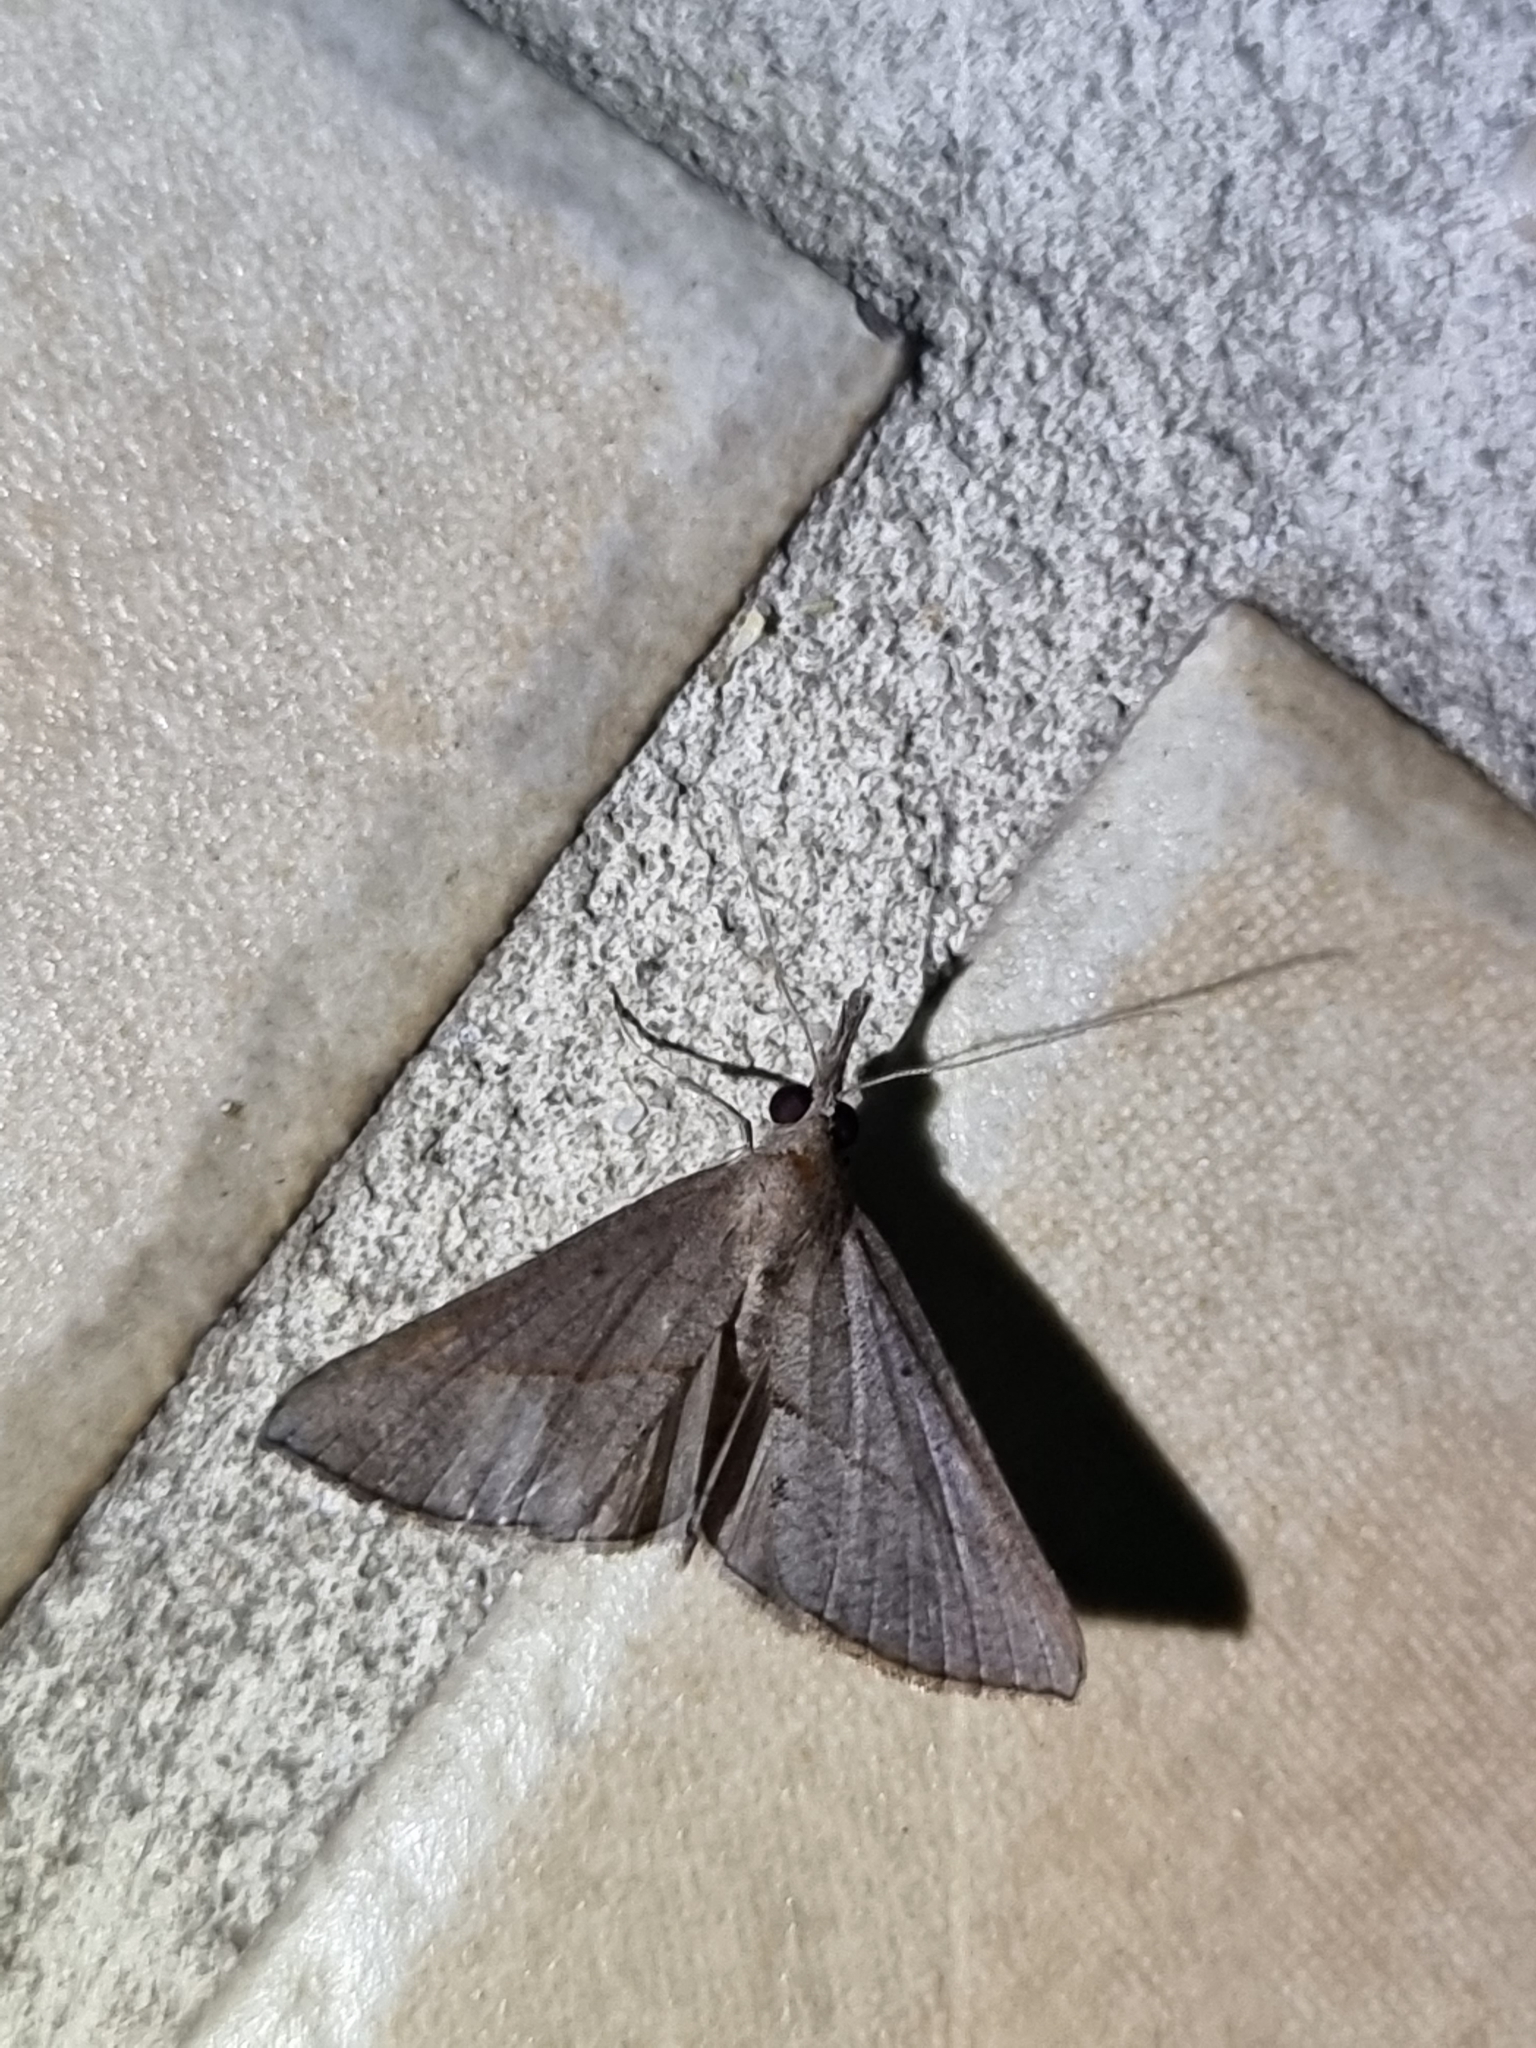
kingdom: Animalia
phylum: Arthropoda
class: Insecta
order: Lepidoptera
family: Erebidae
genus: Hypena
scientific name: Hypena lividalis
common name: Chevron snout
